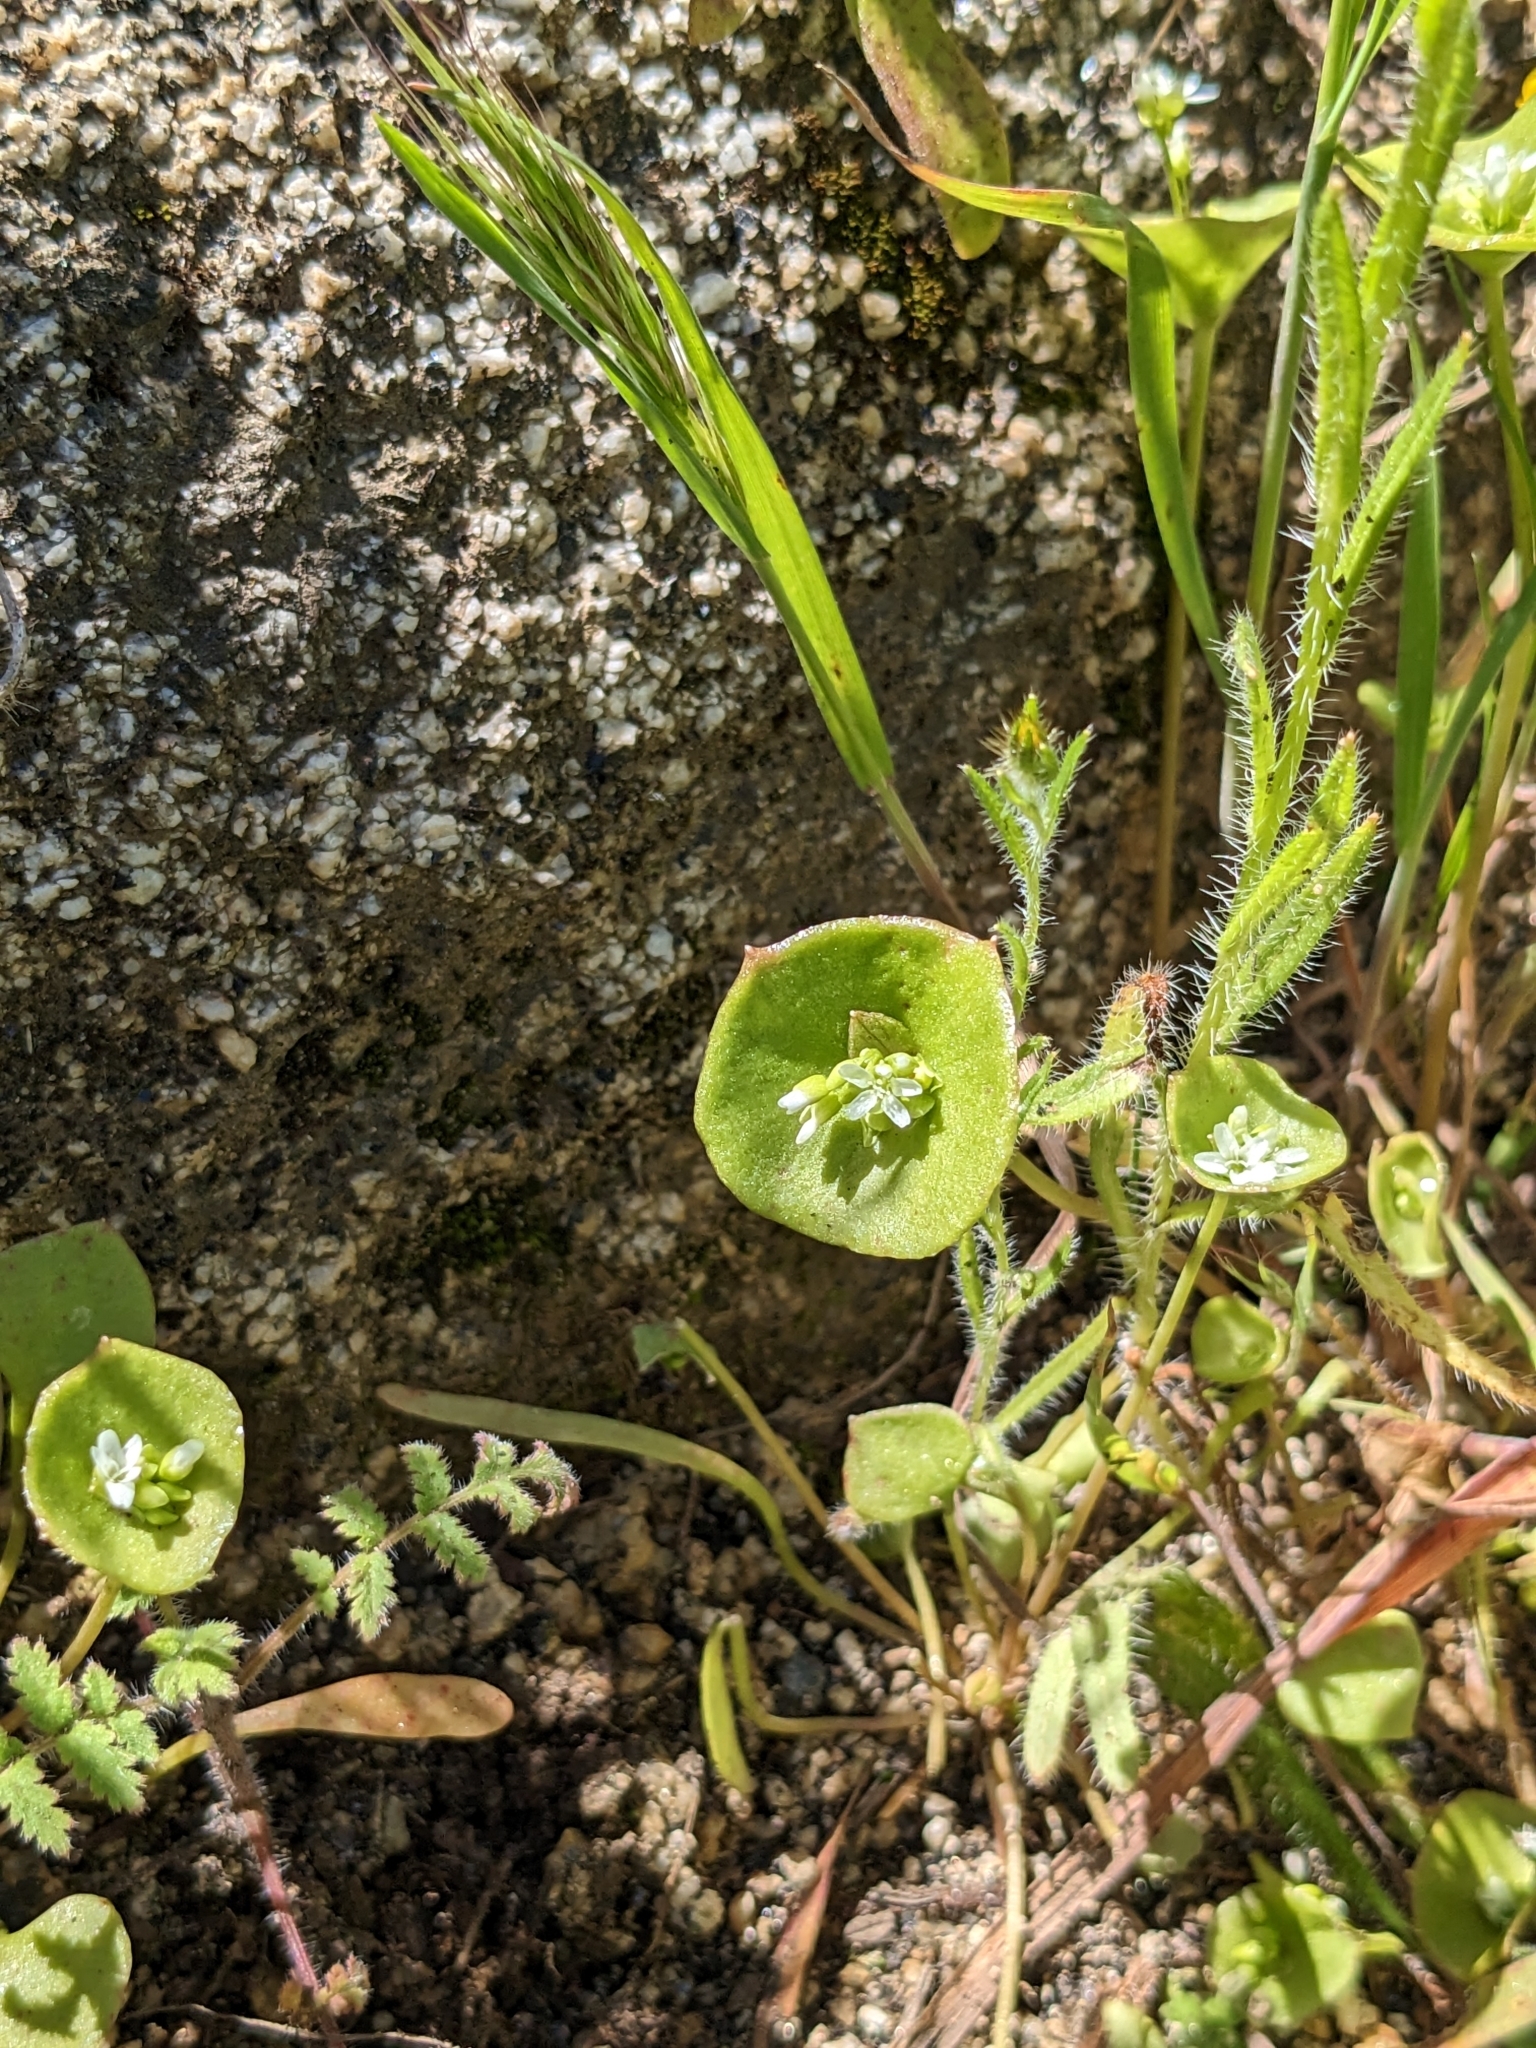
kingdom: Plantae
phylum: Tracheophyta
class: Magnoliopsida
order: Caryophyllales
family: Montiaceae
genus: Claytonia
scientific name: Claytonia perfoliata
